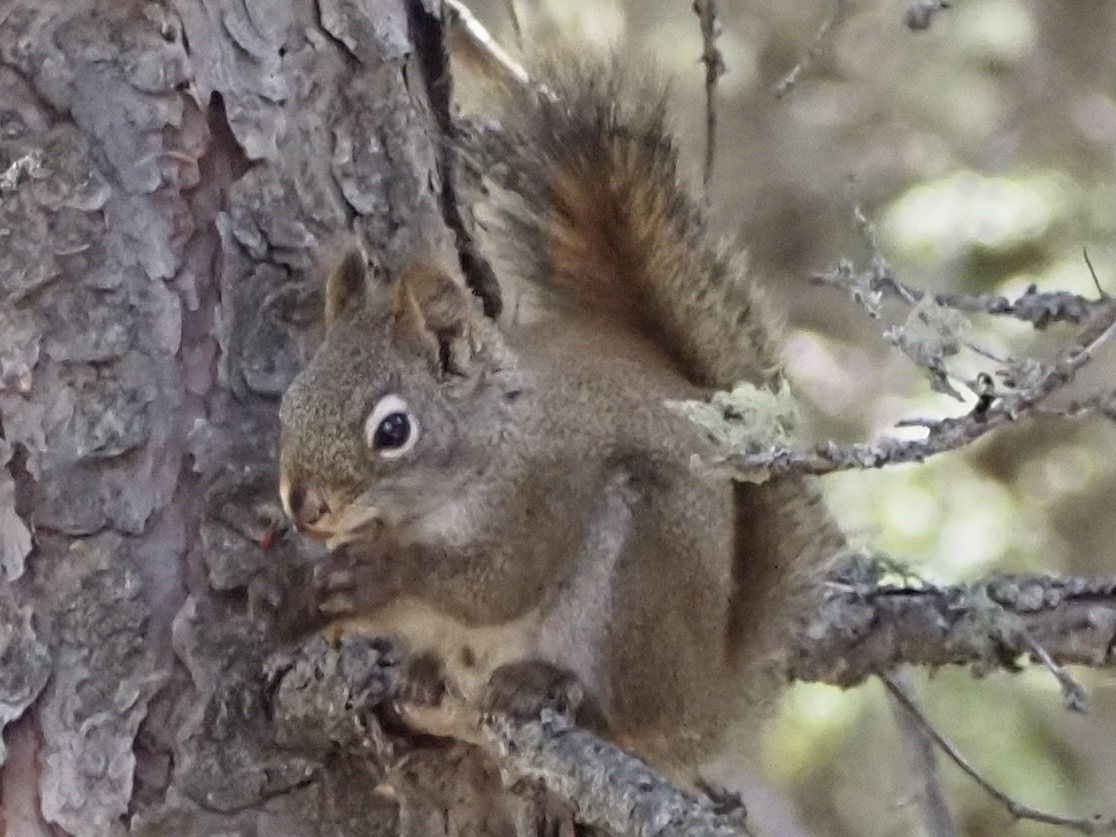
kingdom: Animalia
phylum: Chordata
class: Mammalia
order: Rodentia
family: Sciuridae
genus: Tamiasciurus
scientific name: Tamiasciurus hudsonicus
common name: Red squirrel
